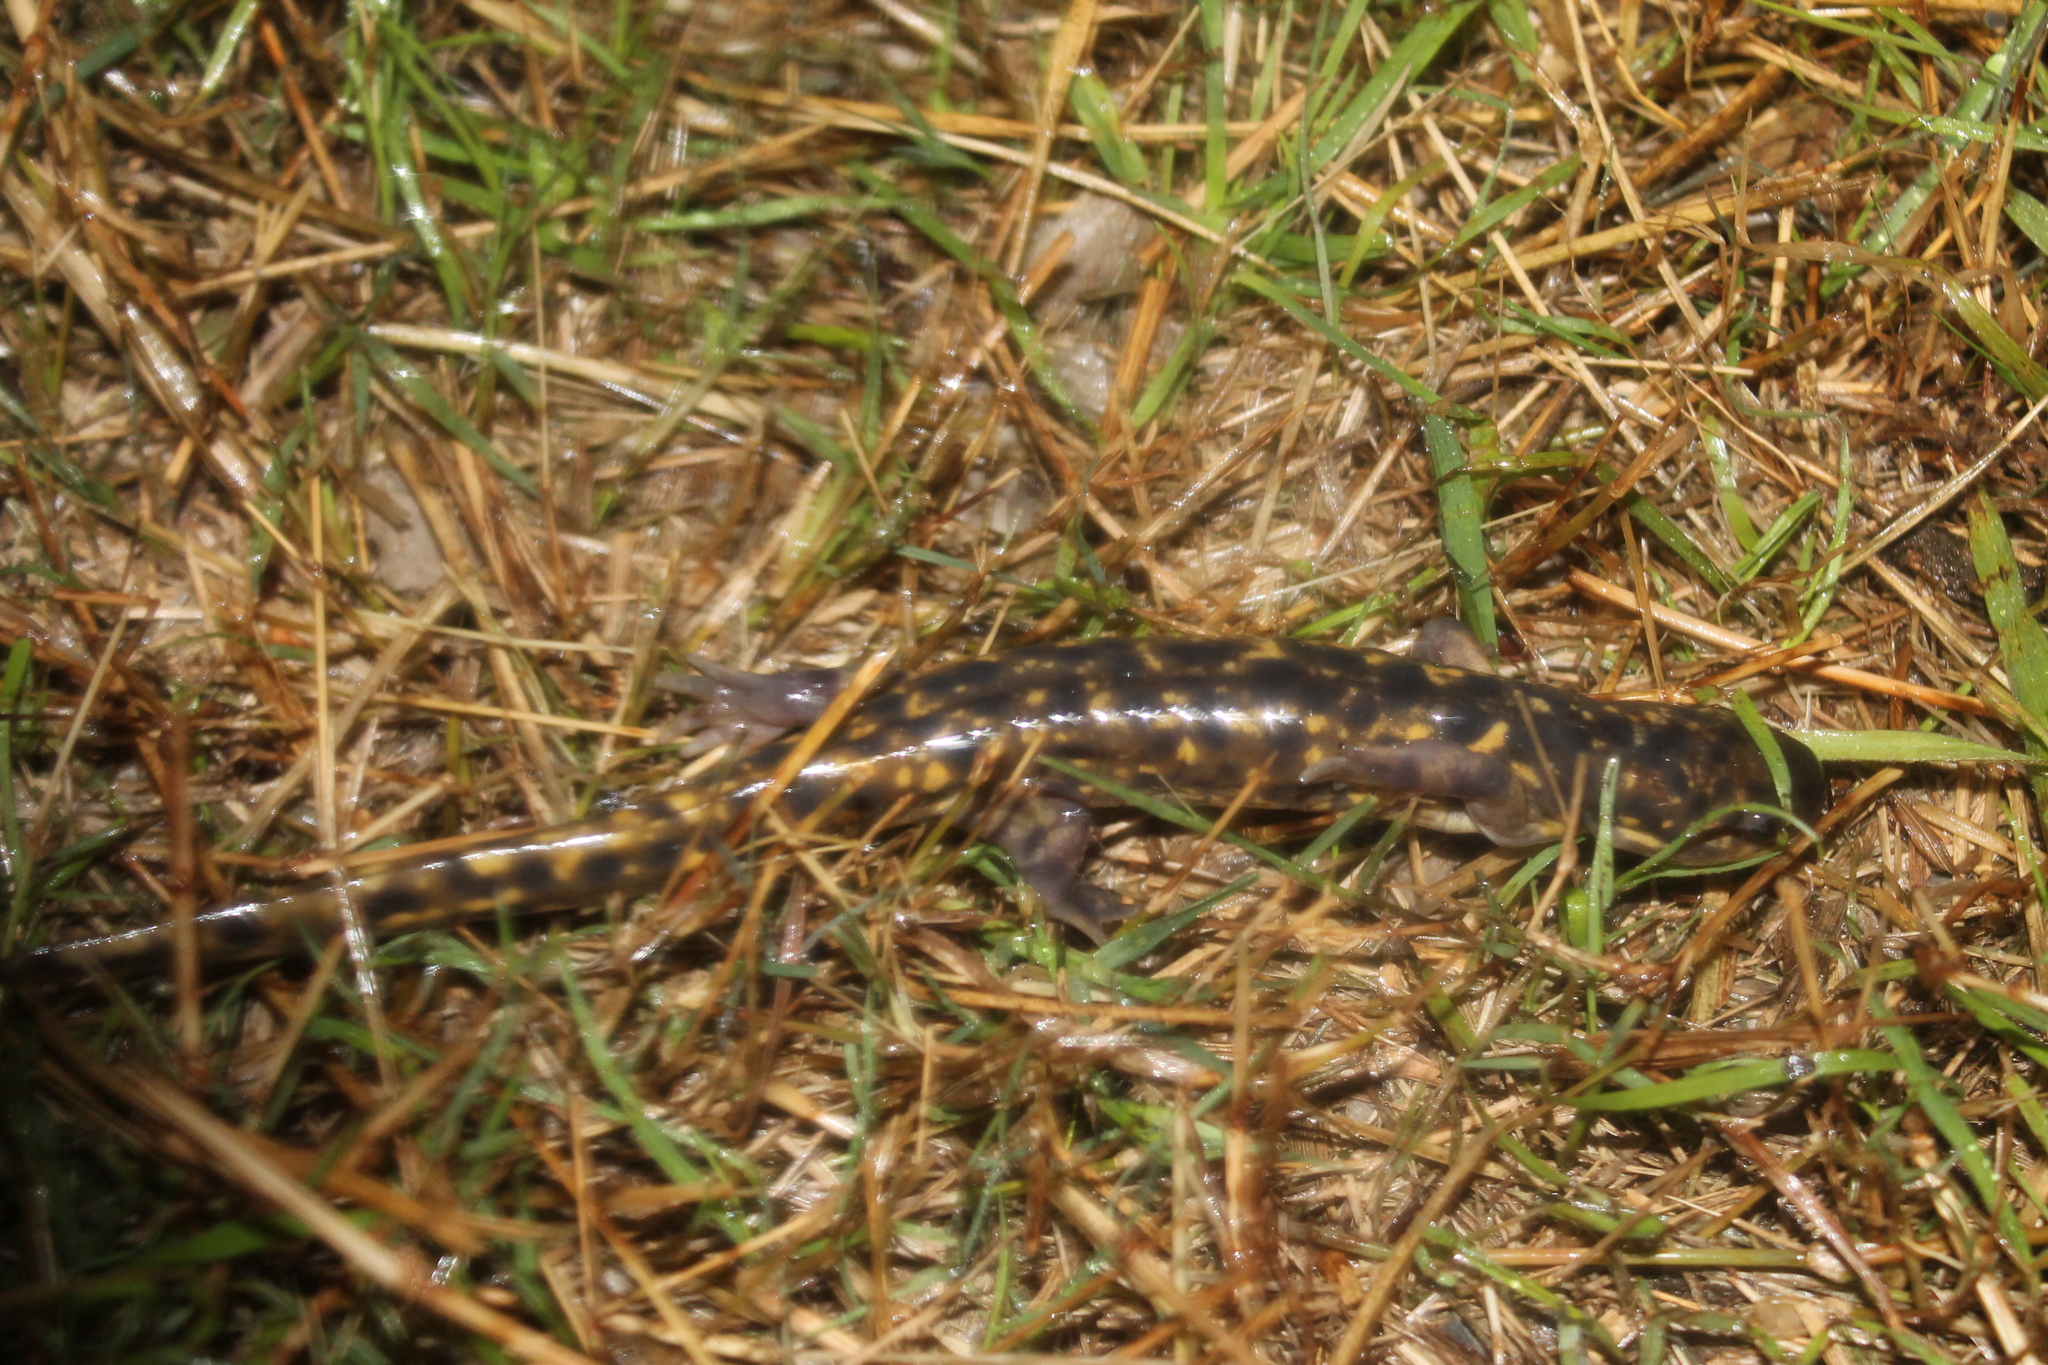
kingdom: Animalia
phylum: Chordata
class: Amphibia
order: Caudata
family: Ambystomatidae
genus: Ambystoma
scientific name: Ambystoma tigrinum
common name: Tiger salamander
